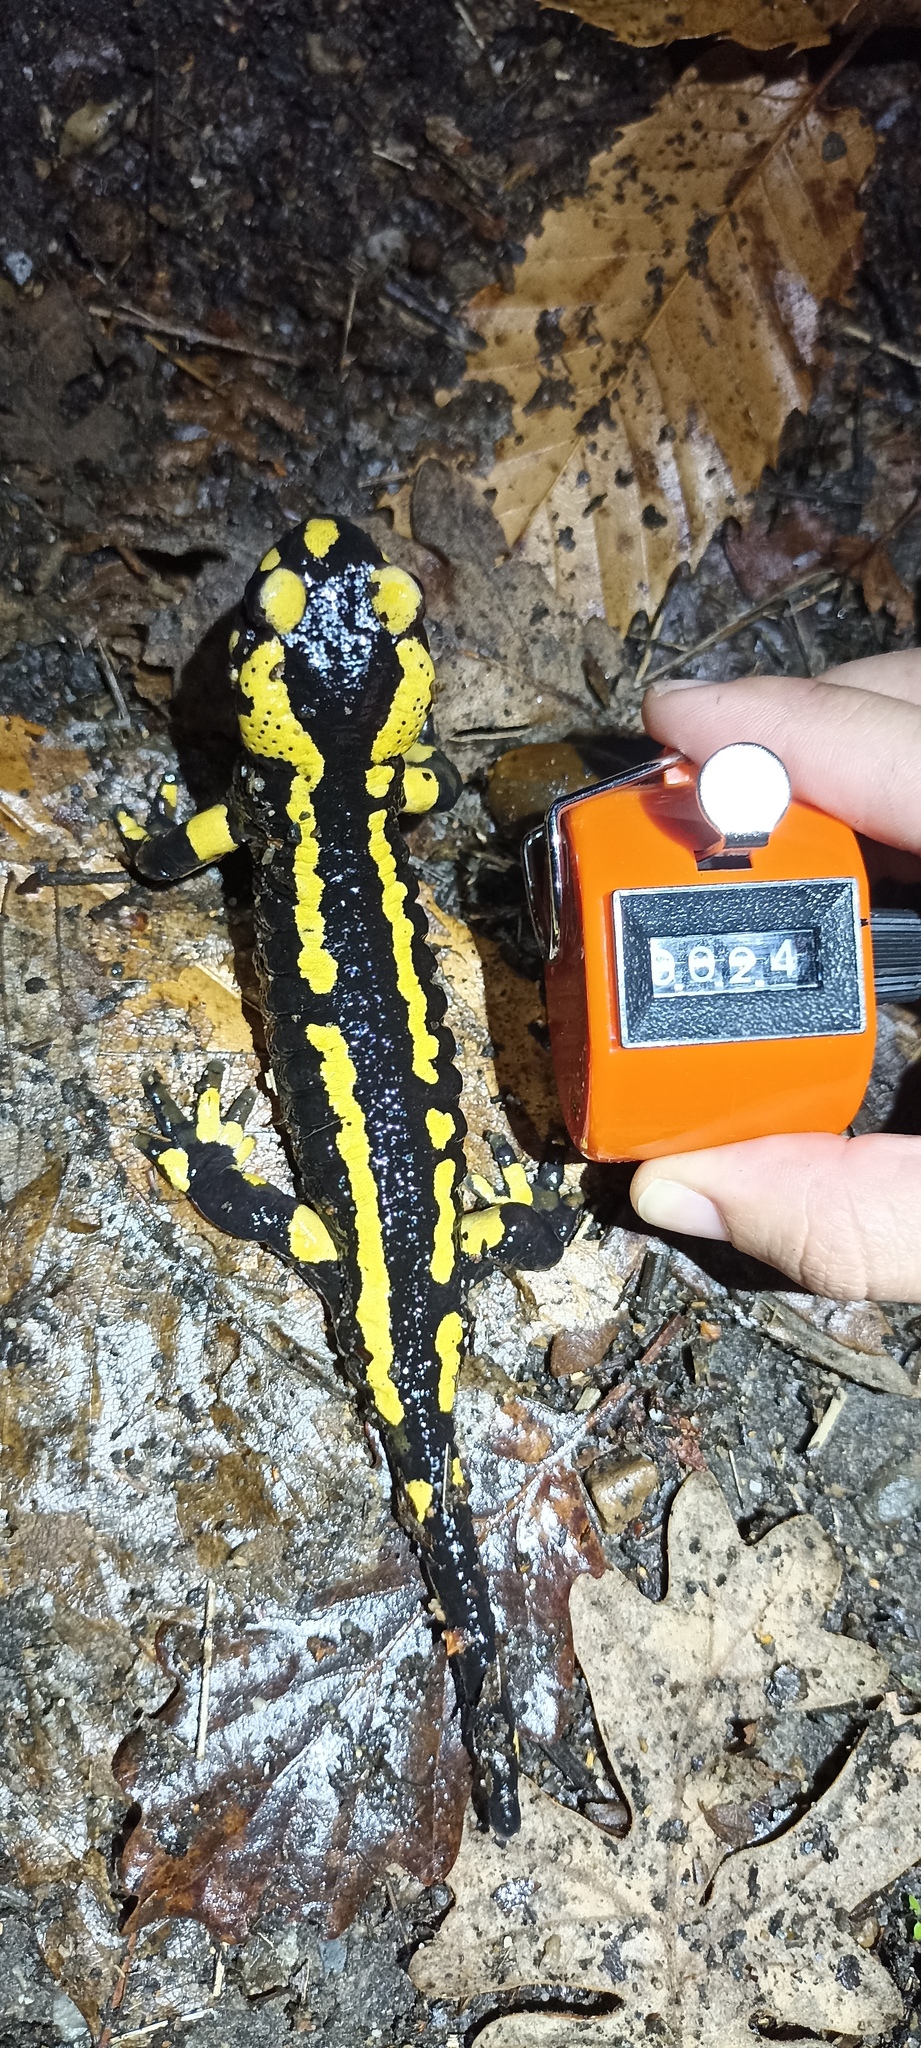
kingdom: Animalia
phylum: Chordata
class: Amphibia
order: Caudata
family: Salamandridae
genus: Salamandra
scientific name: Salamandra salamandra
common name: Fire salamander
